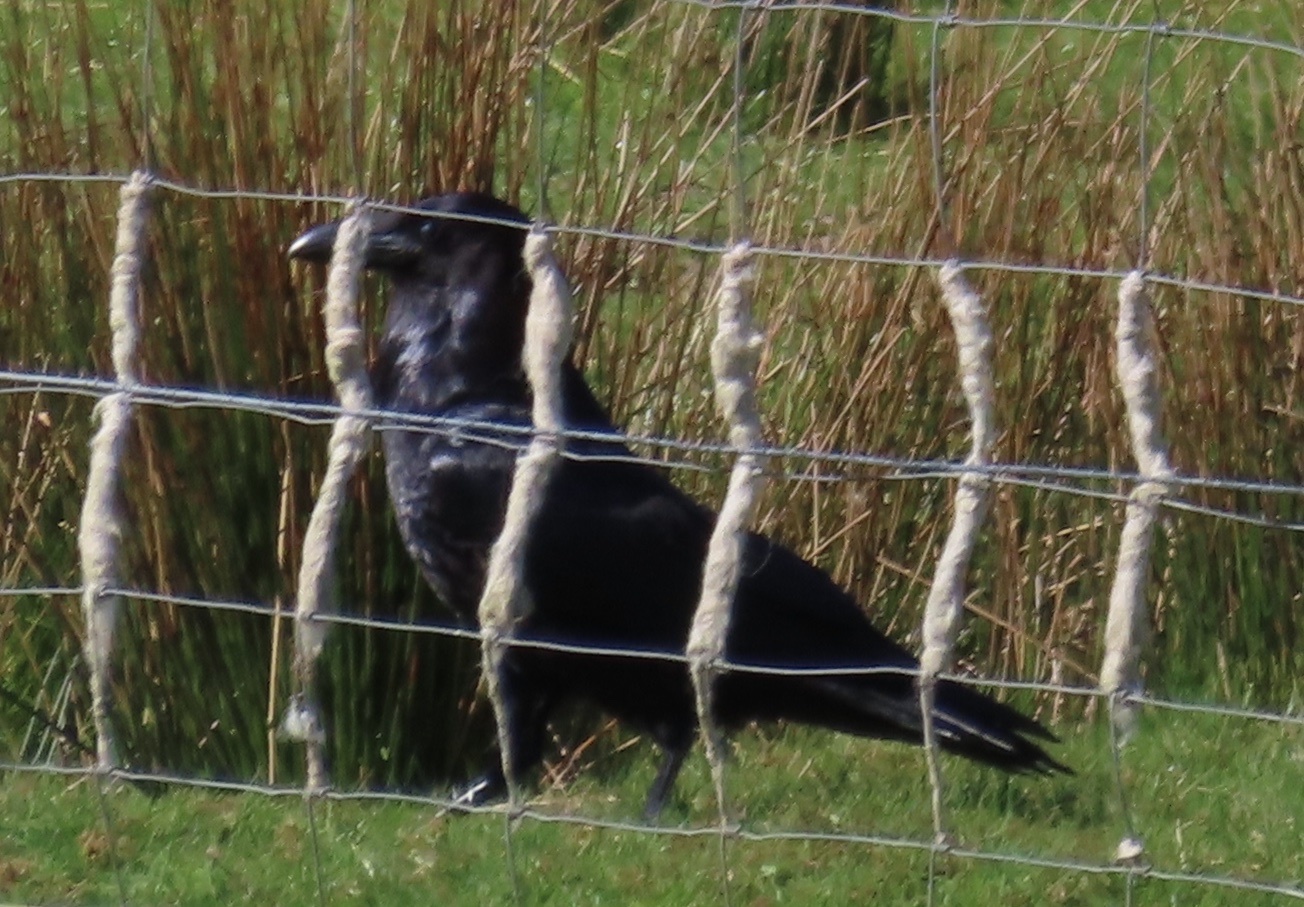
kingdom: Animalia
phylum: Chordata
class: Aves
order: Passeriformes
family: Corvidae
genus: Corvus
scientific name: Corvus corax
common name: Common raven
